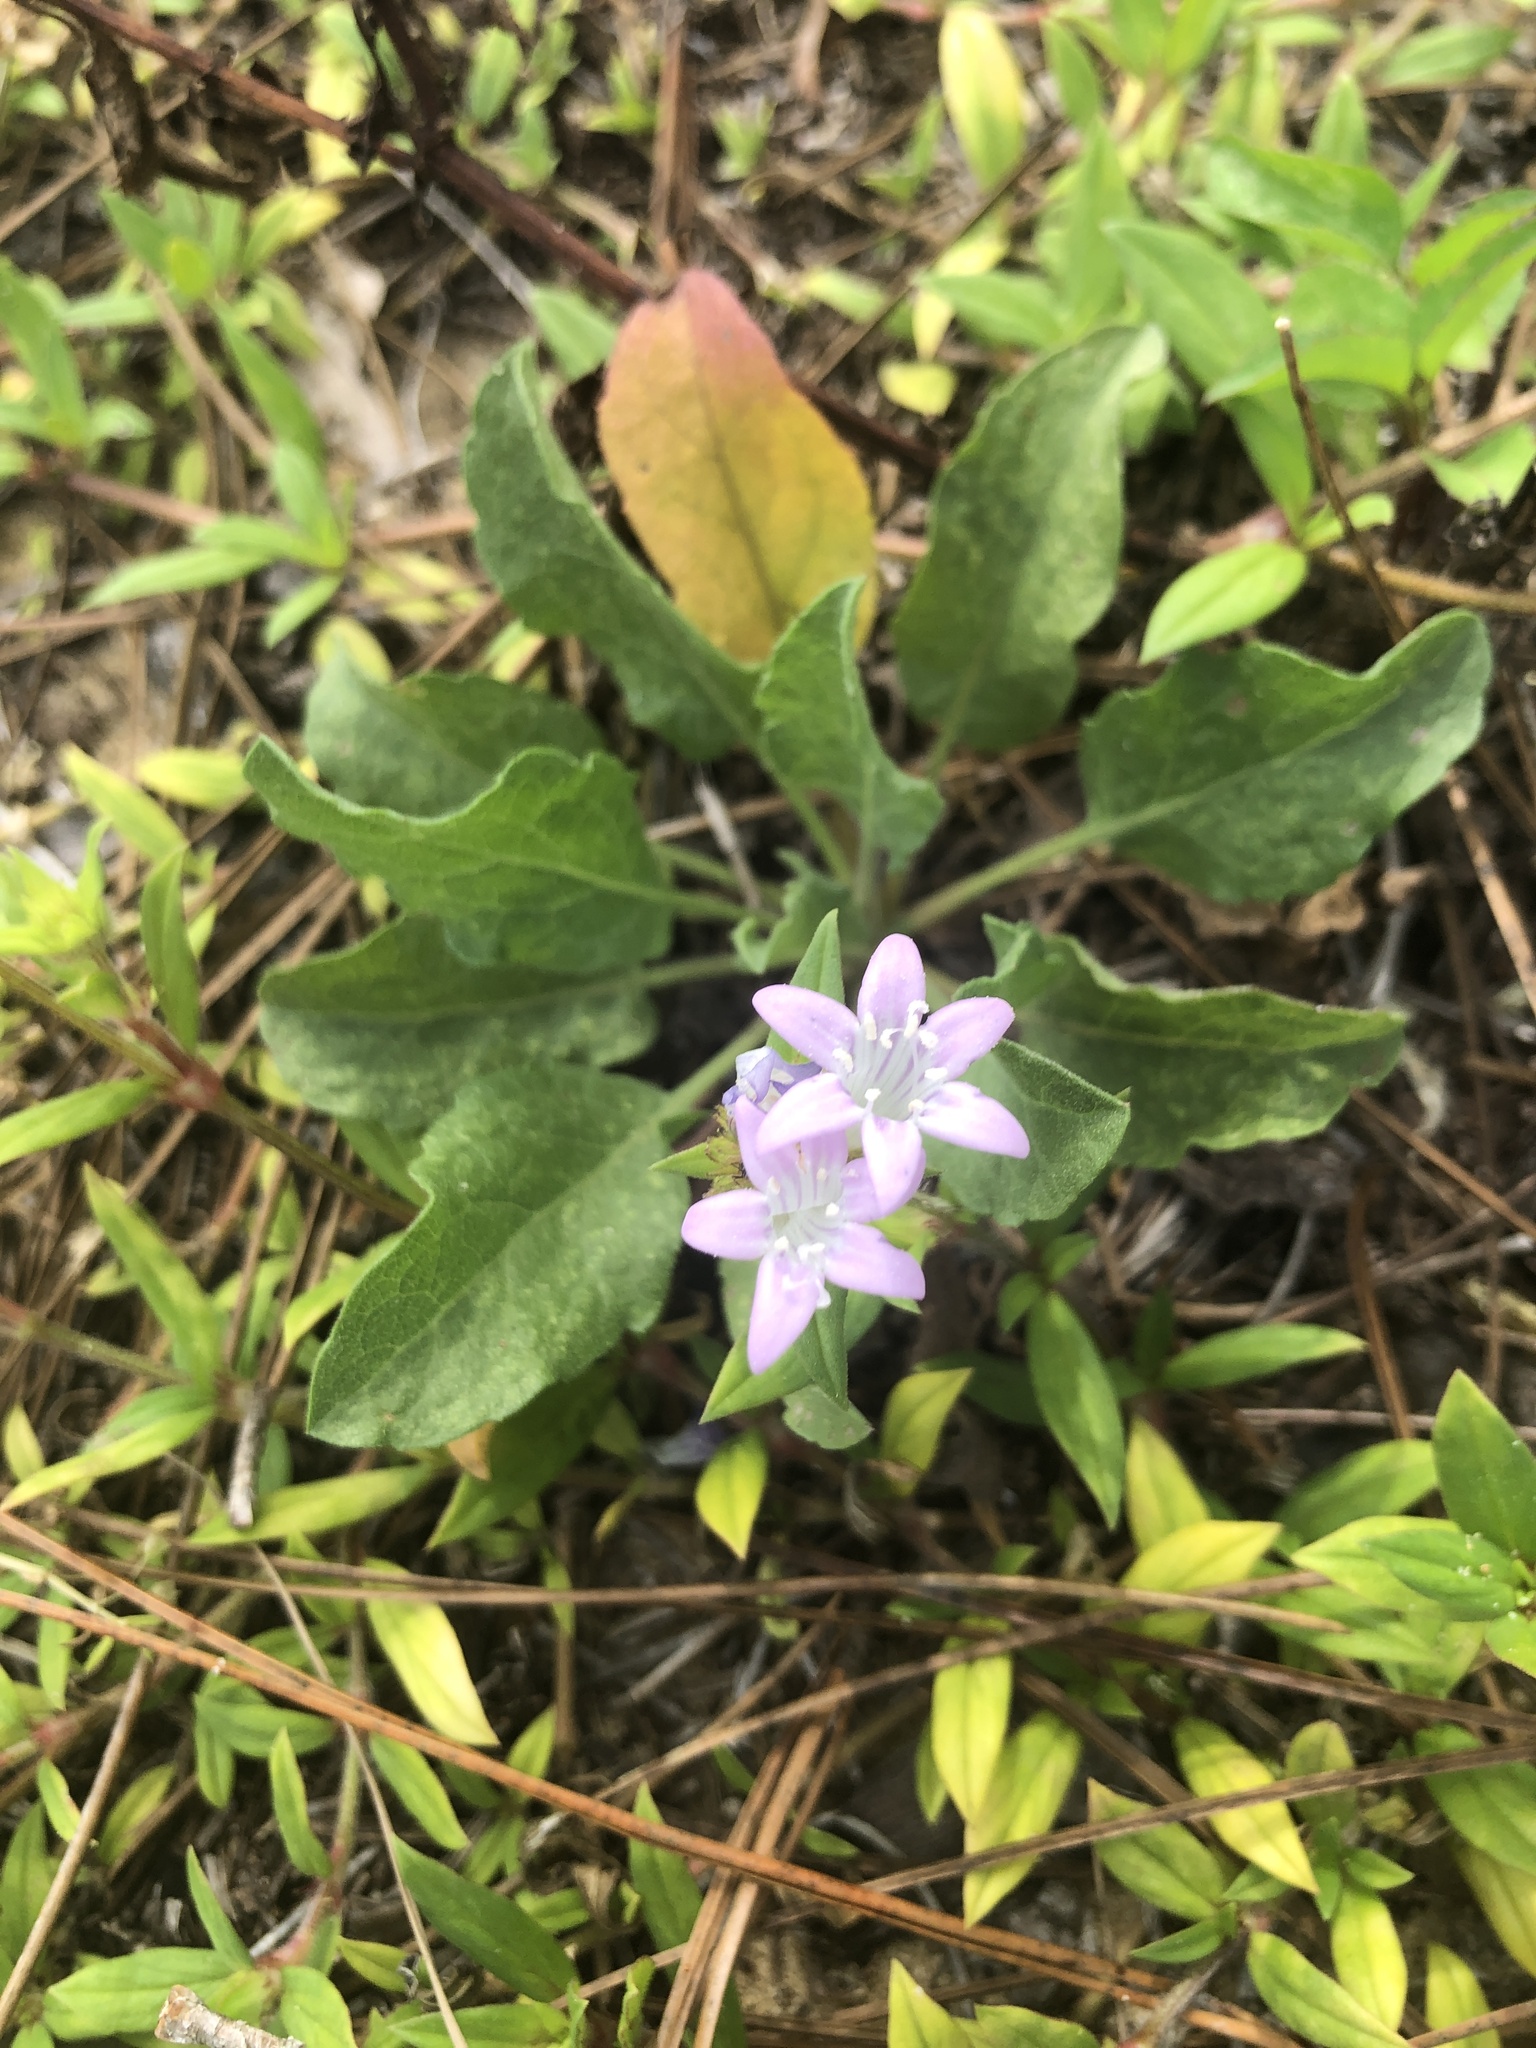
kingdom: Plantae
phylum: Tracheophyta
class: Magnoliopsida
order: Gentianales
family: Rubiaceae
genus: Richardia
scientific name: Richardia grandiflora
